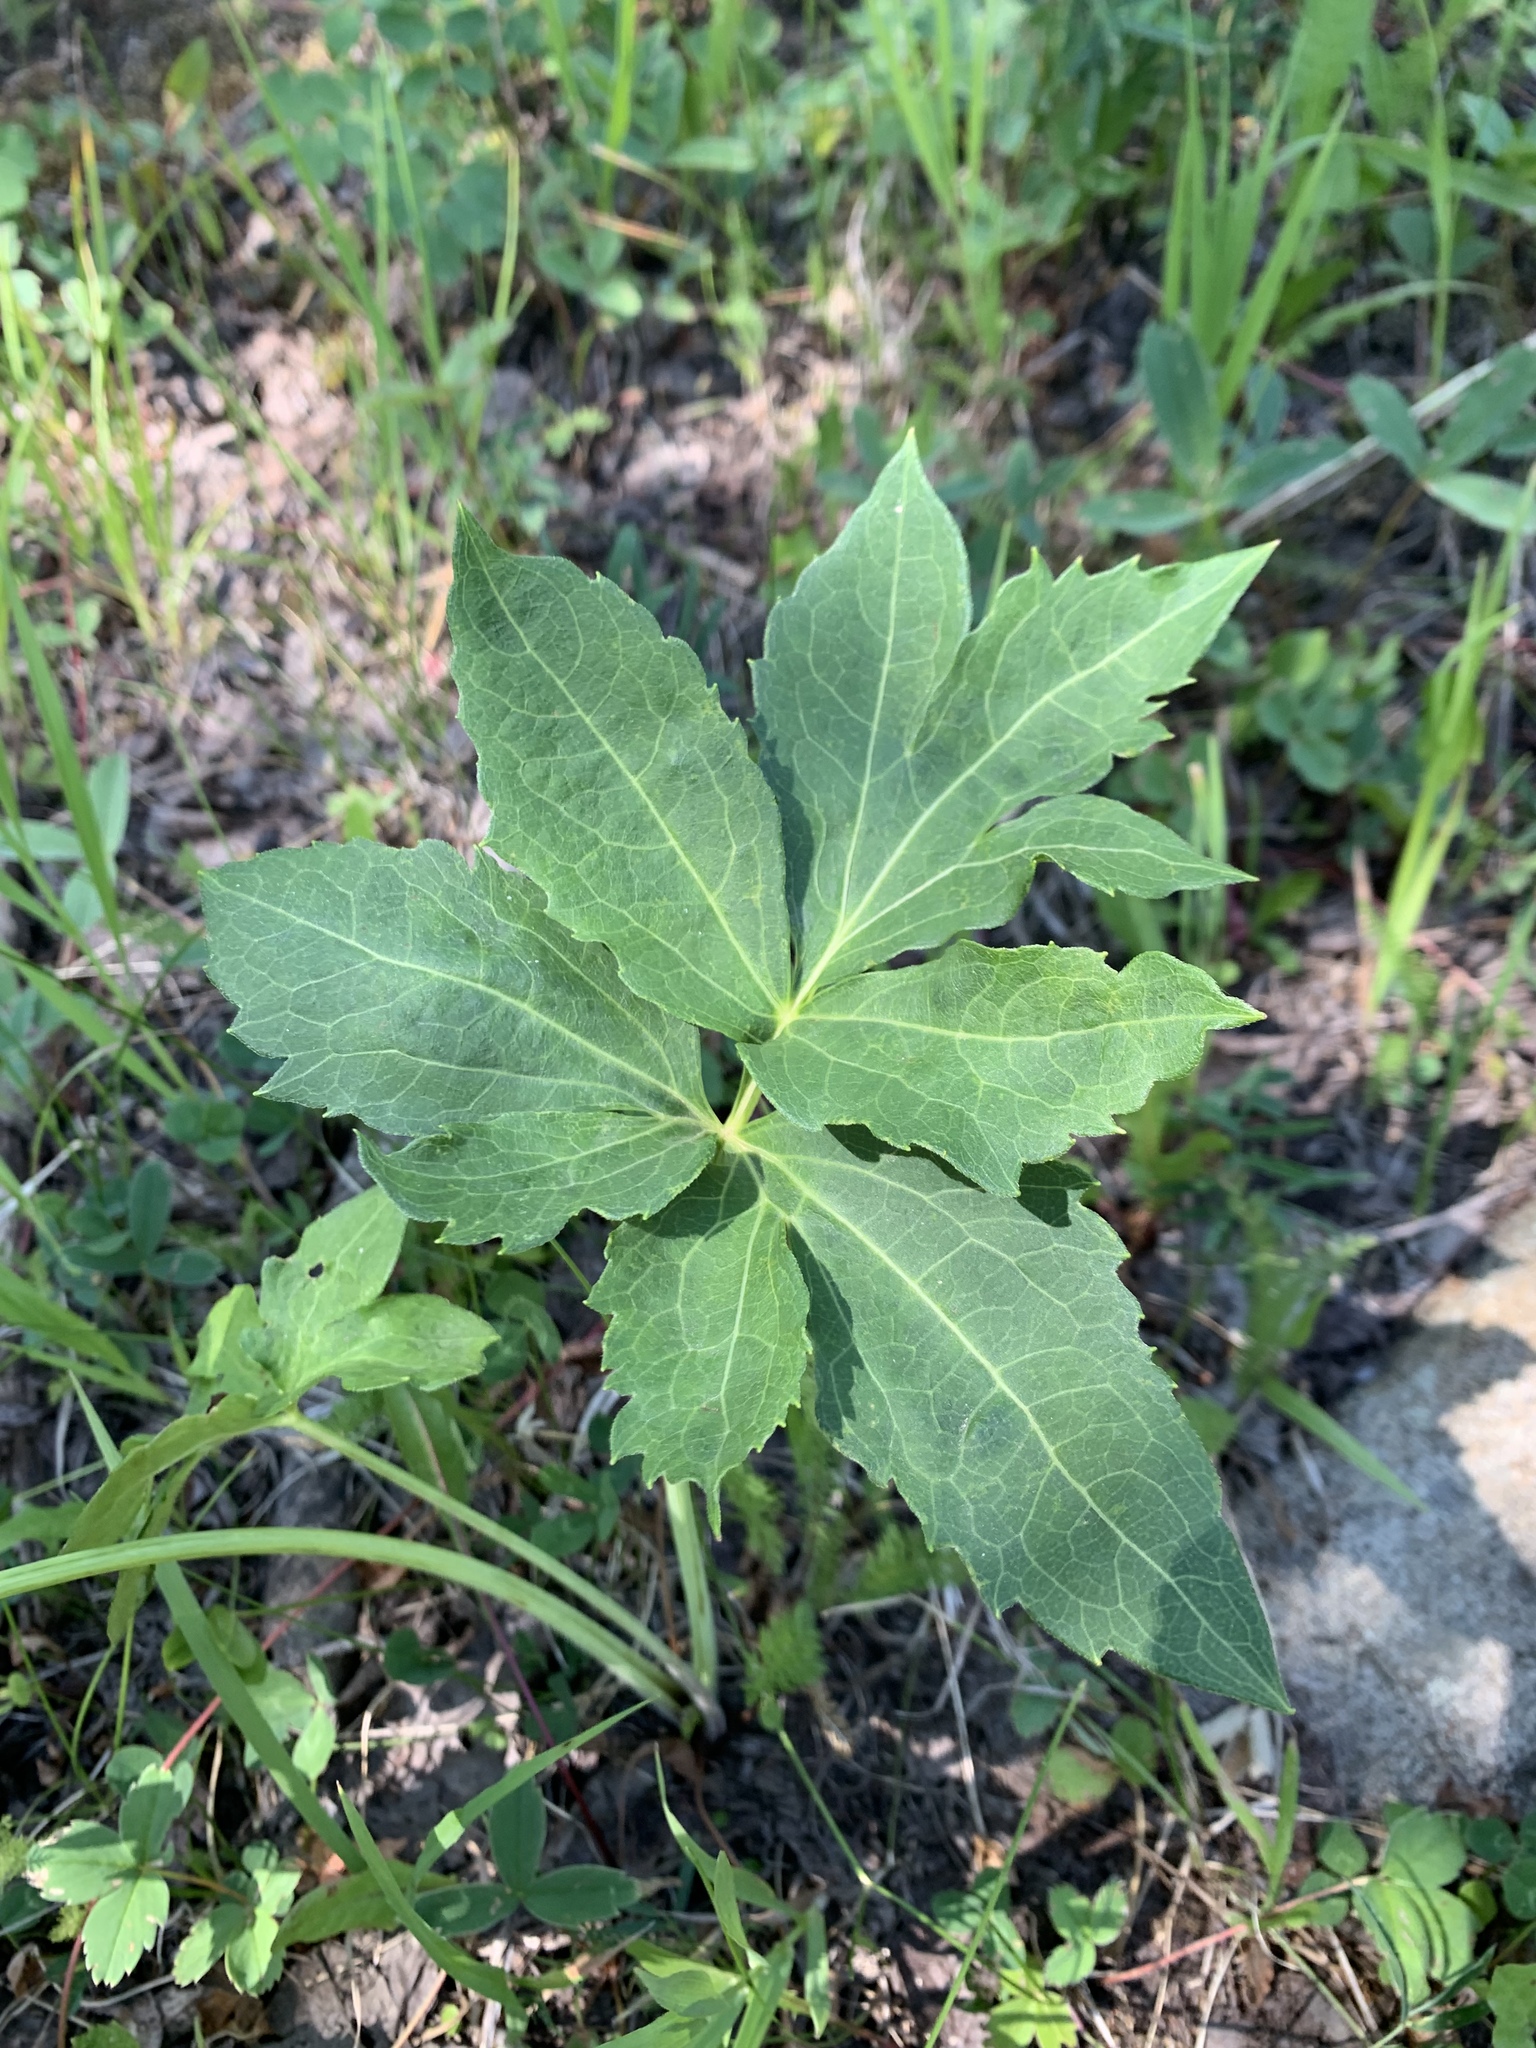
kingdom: Plantae
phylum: Tracheophyta
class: Magnoliopsida
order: Asterales
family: Asteraceae
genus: Rudbeckia
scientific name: Rudbeckia laciniata
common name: Coneflower
